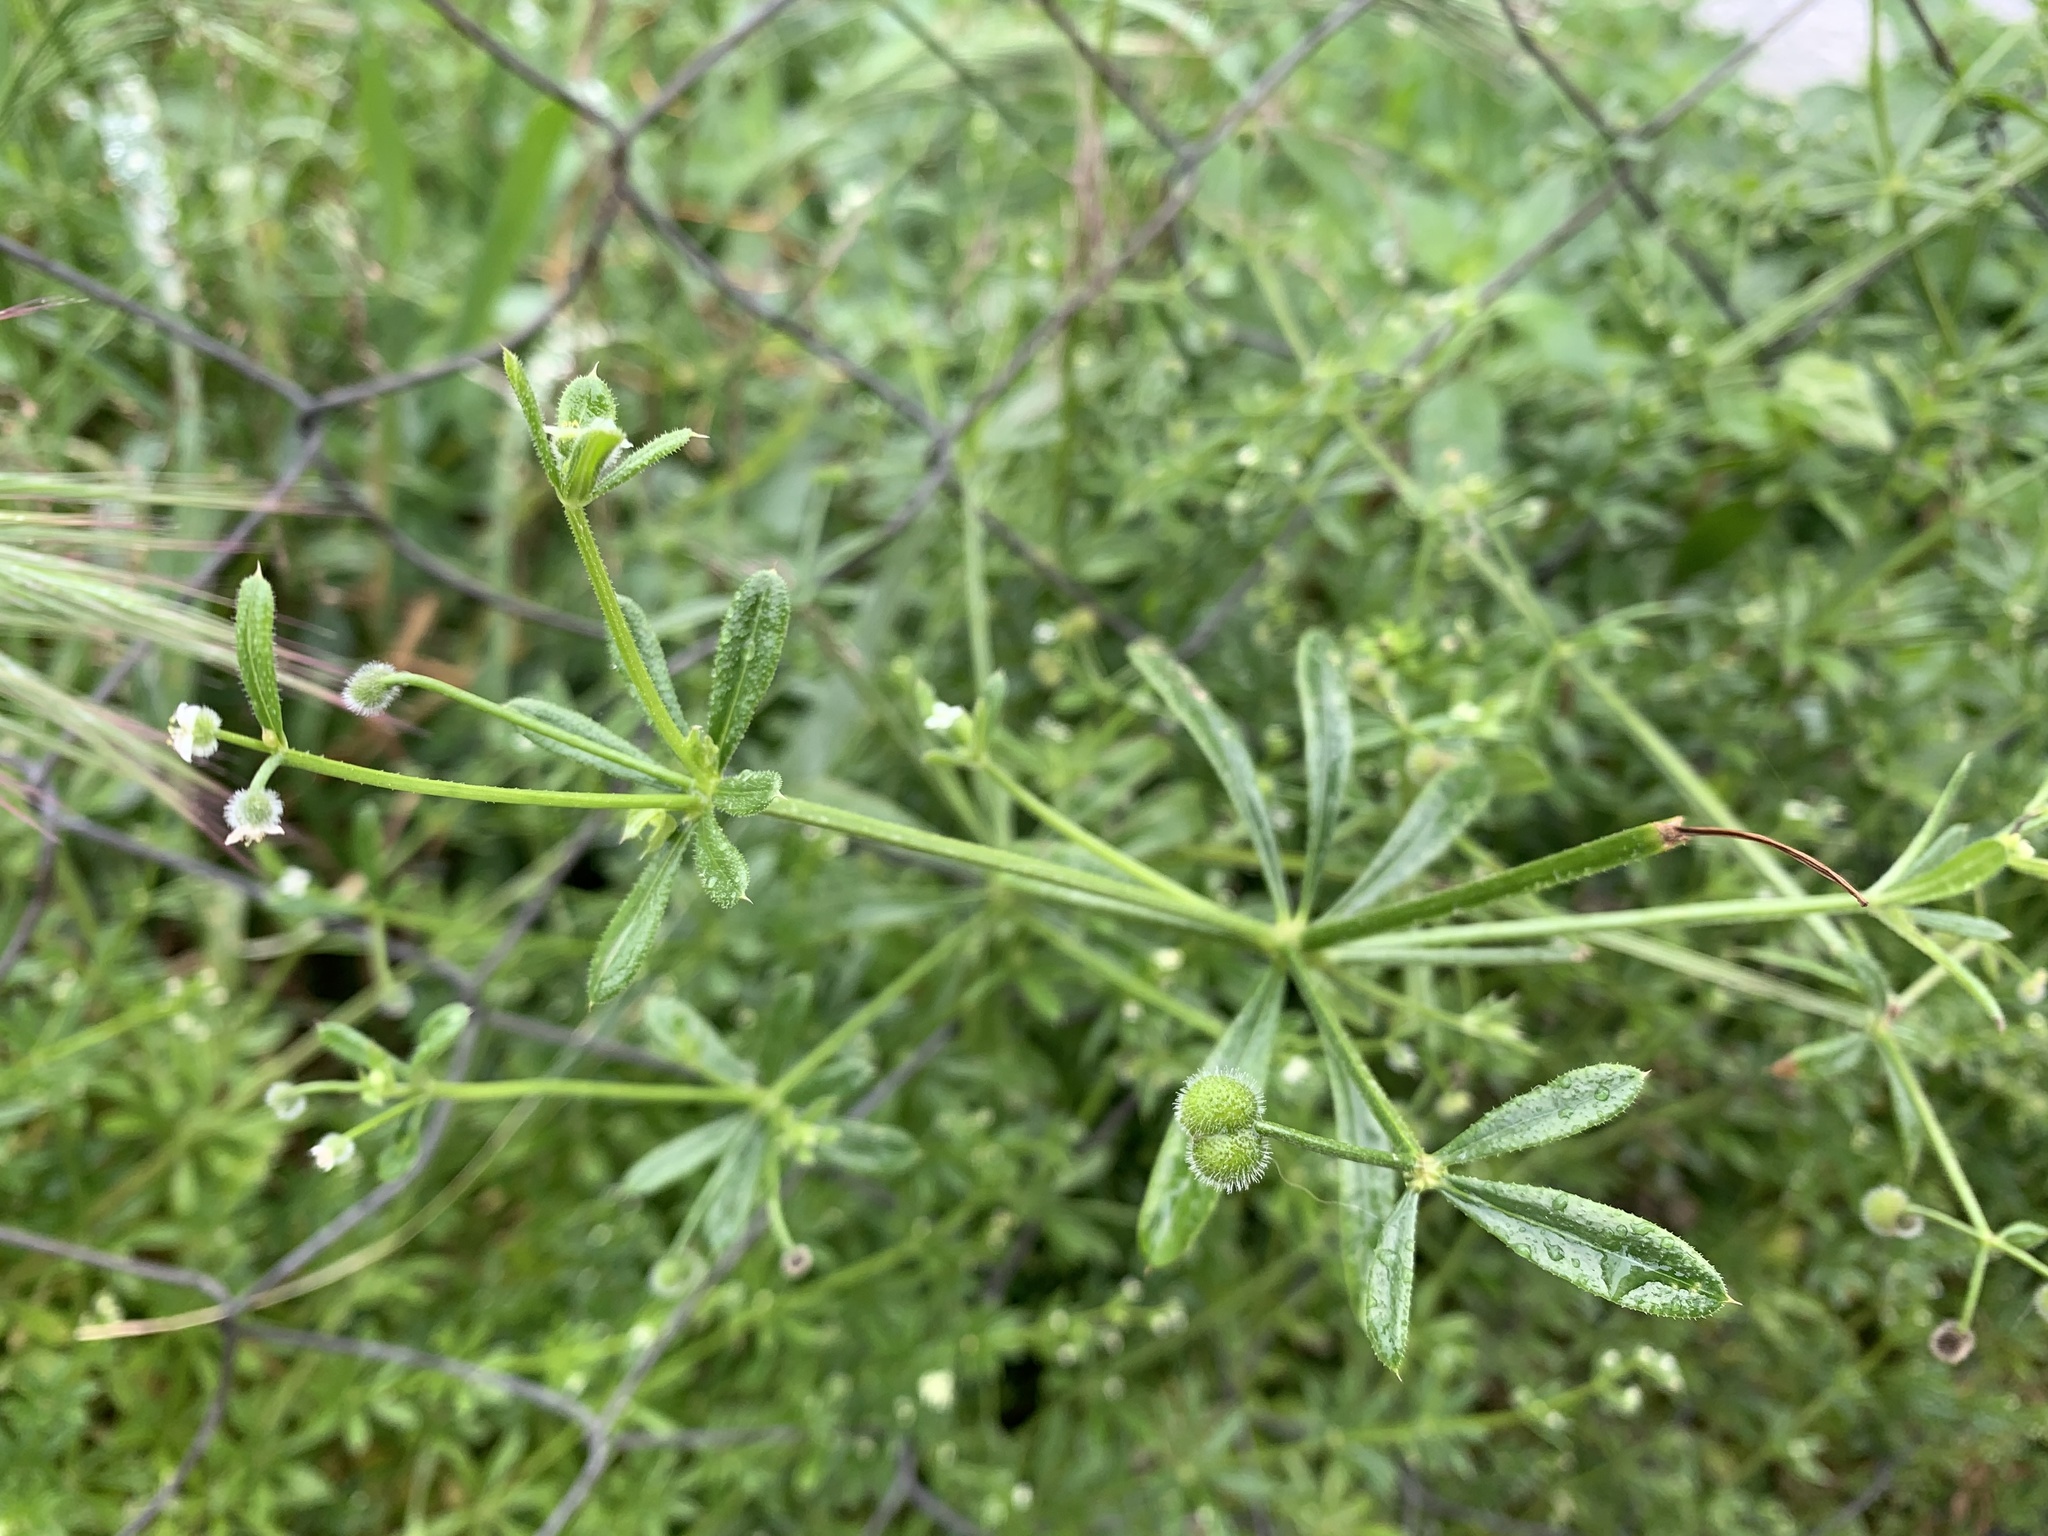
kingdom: Plantae
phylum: Tracheophyta
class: Magnoliopsida
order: Gentianales
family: Rubiaceae
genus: Galium
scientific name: Galium aparine
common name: Cleavers
